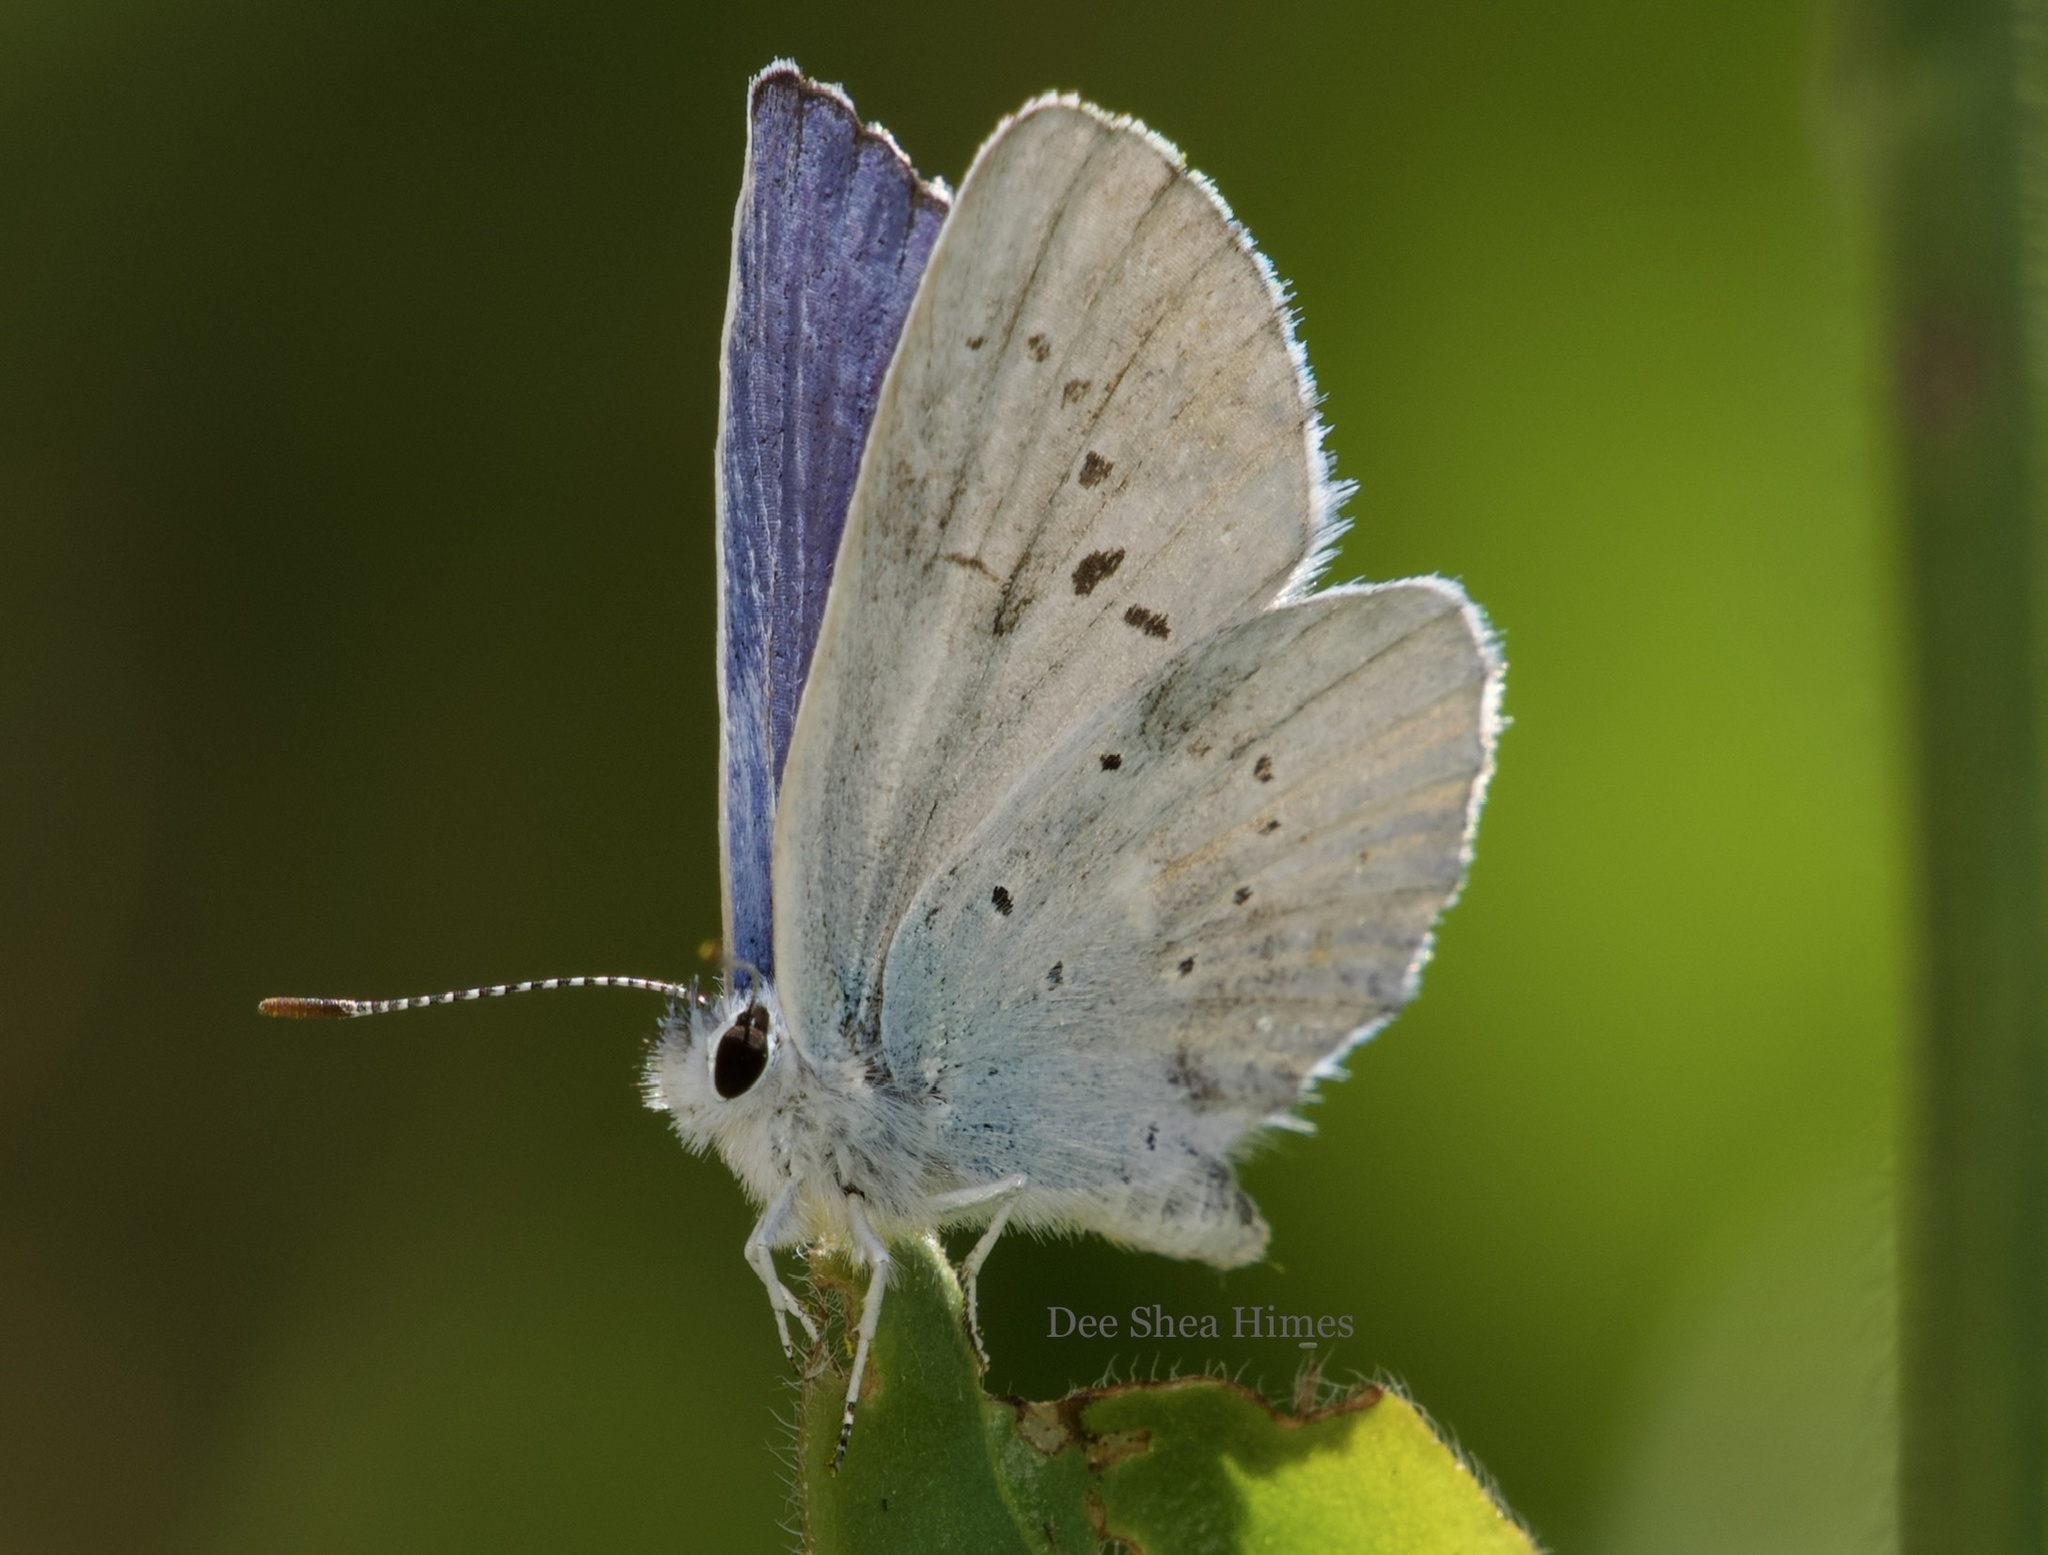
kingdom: Animalia
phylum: Arthropoda
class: Insecta
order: Lepidoptera
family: Lycaenidae
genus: Lycaeides
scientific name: Lycaeides anna
